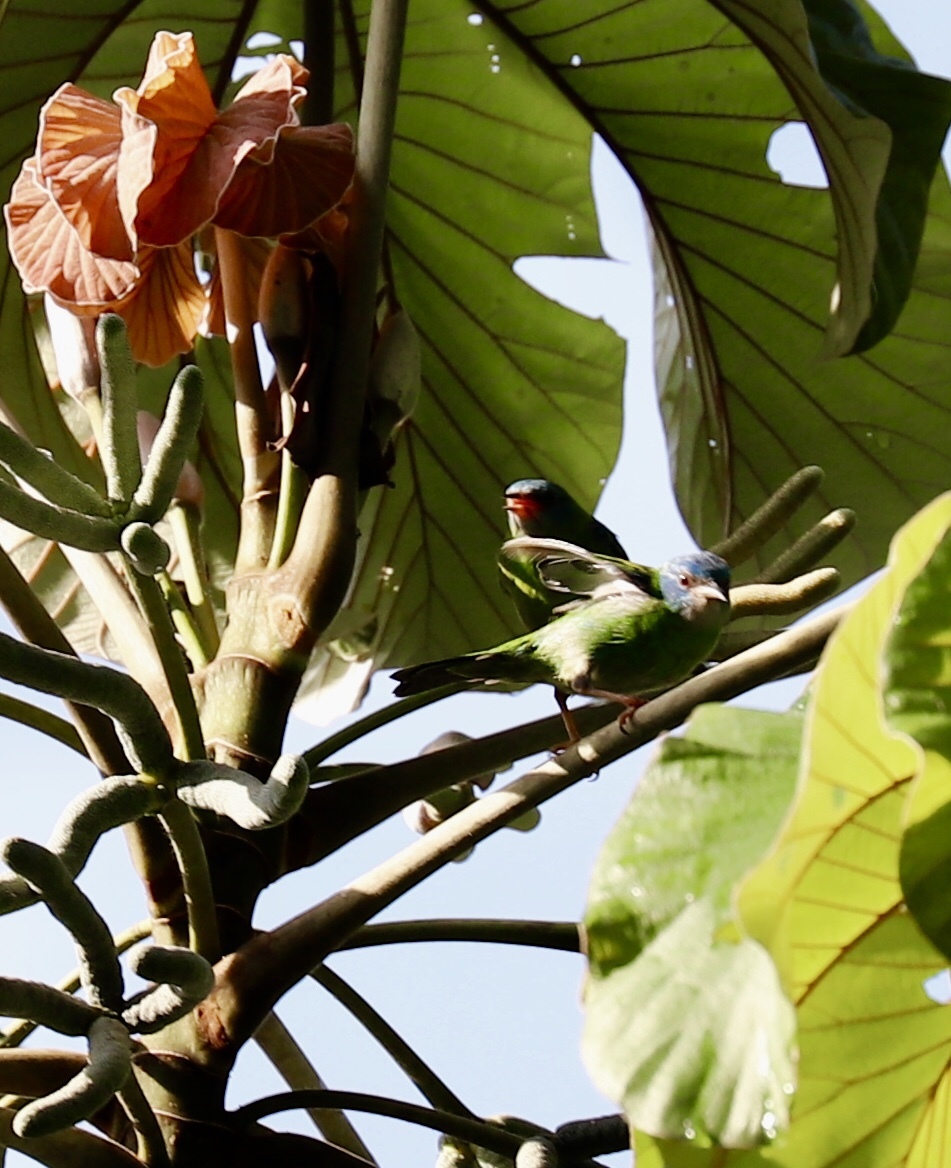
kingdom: Animalia
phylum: Chordata
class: Aves
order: Passeriformes
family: Thraupidae
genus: Dacnis
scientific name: Dacnis cayana
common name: Blue dacnis
